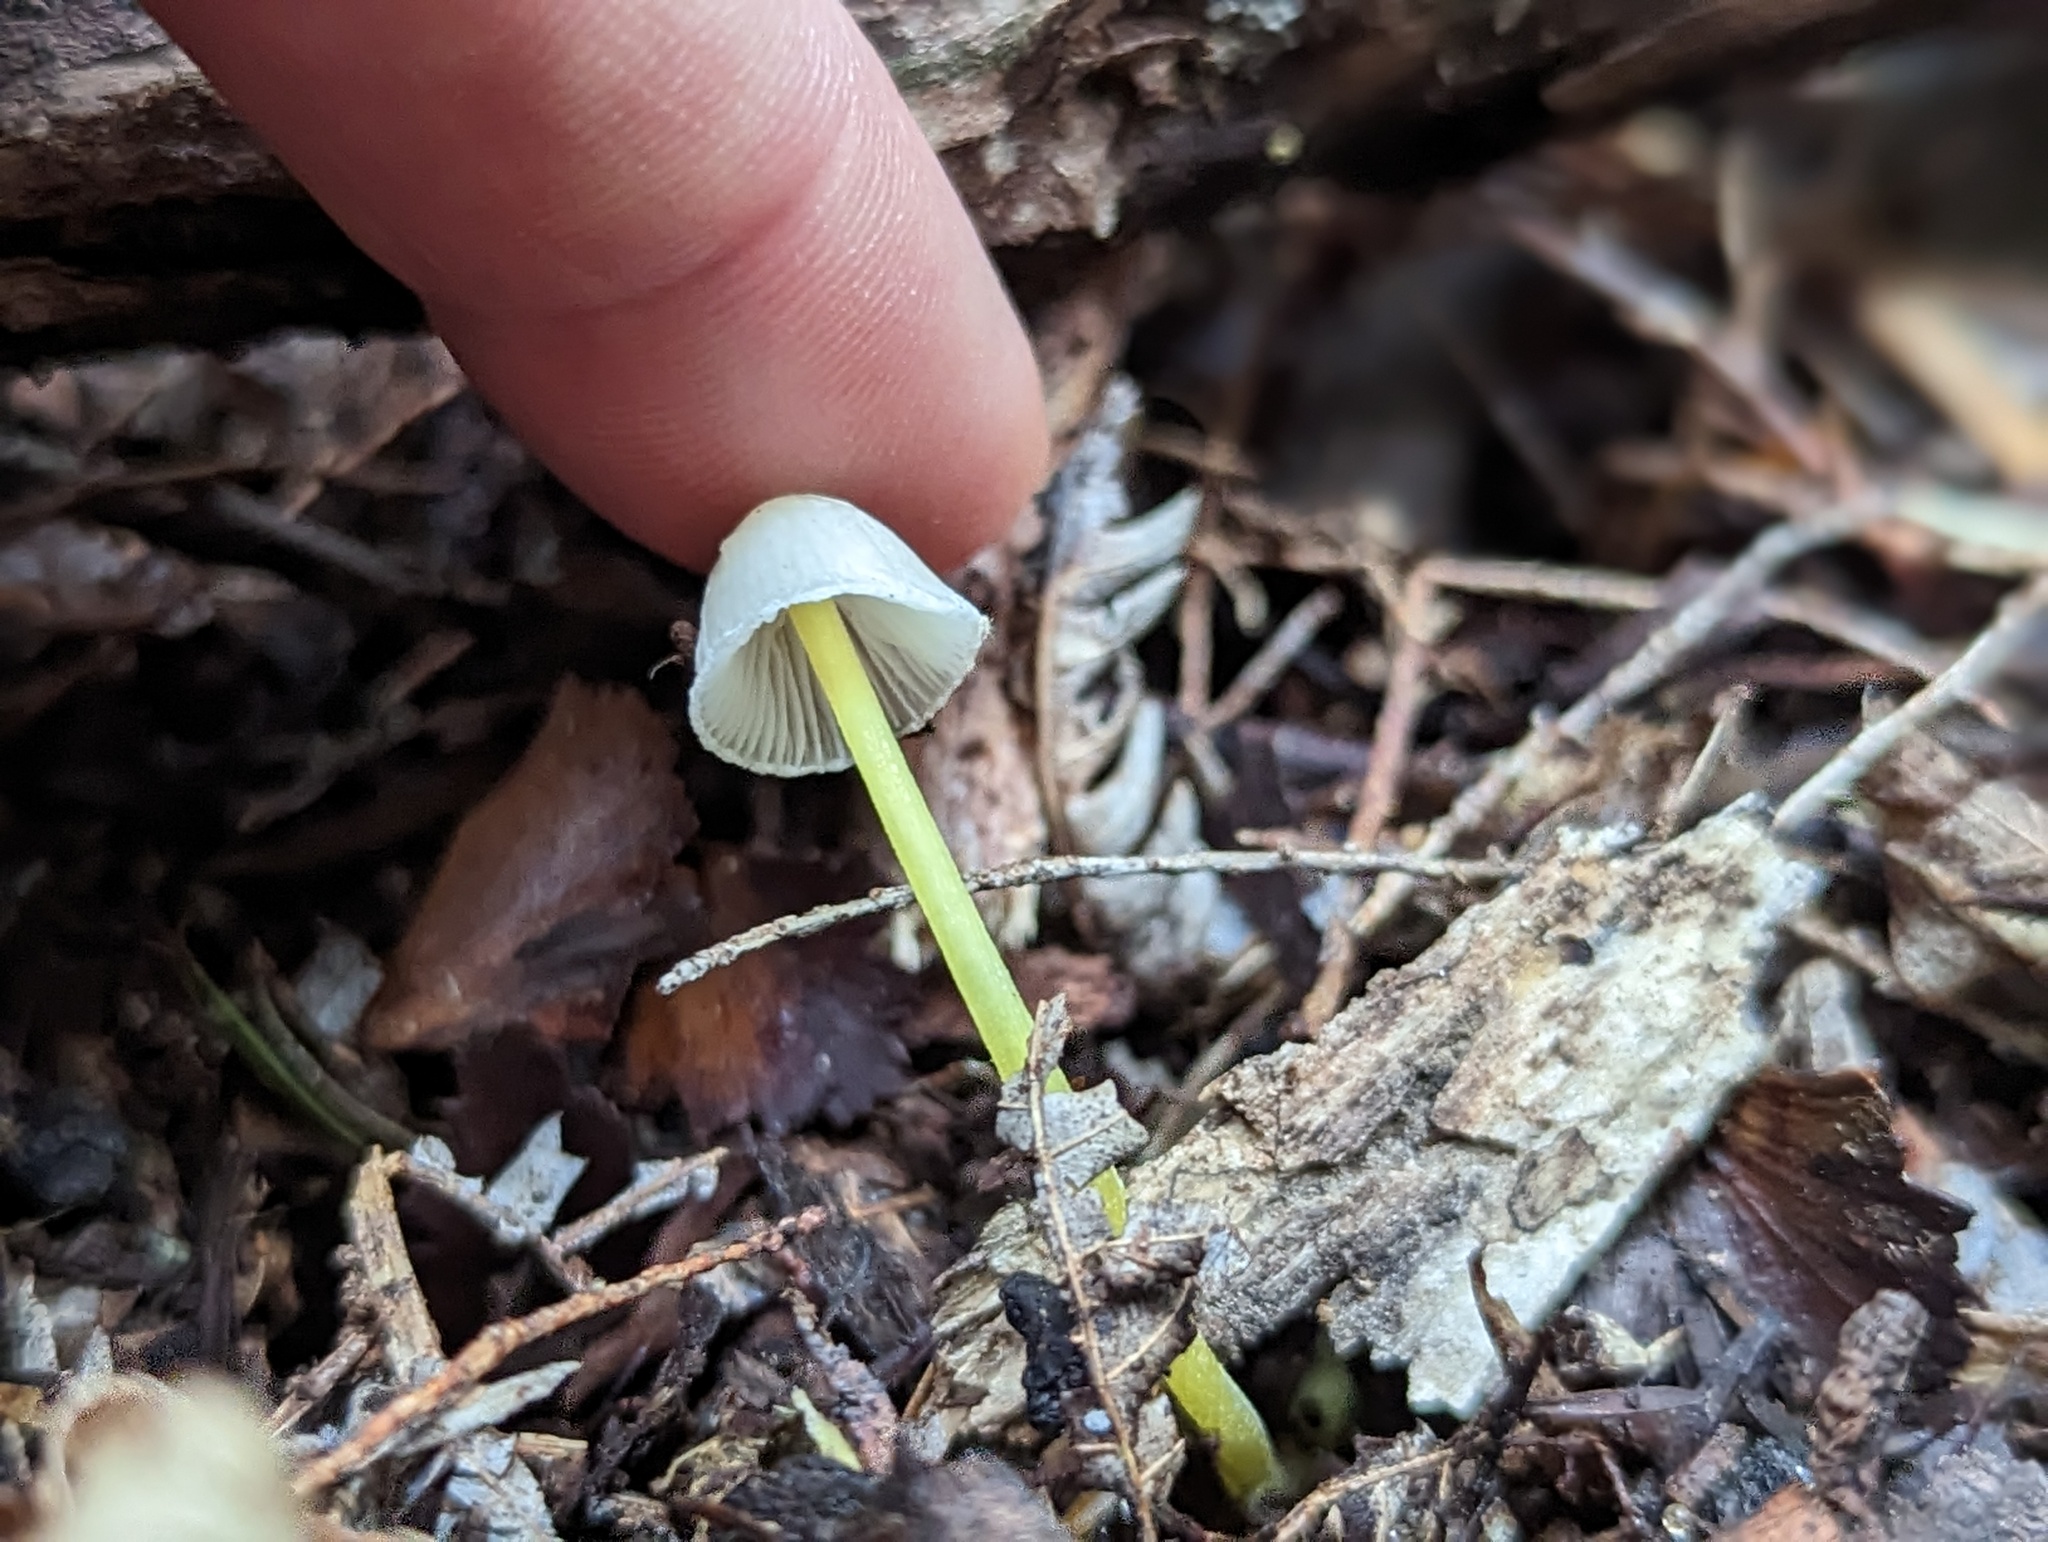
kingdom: Fungi
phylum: Basidiomycota
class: Agaricomycetes
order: Agaricales
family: Mycenaceae
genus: Mycena
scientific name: Mycena subviscosa
